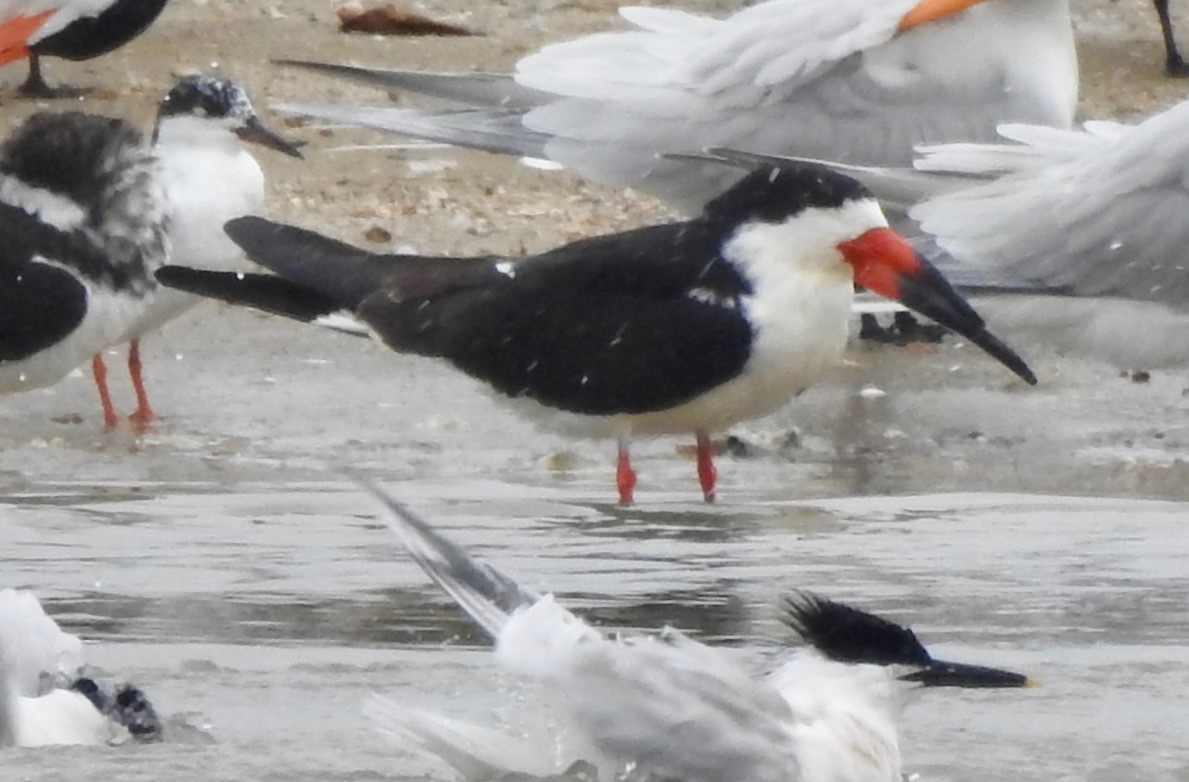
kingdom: Animalia
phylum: Chordata
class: Aves
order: Charadriiformes
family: Laridae
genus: Rynchops
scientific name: Rynchops niger
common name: Black skimmer
